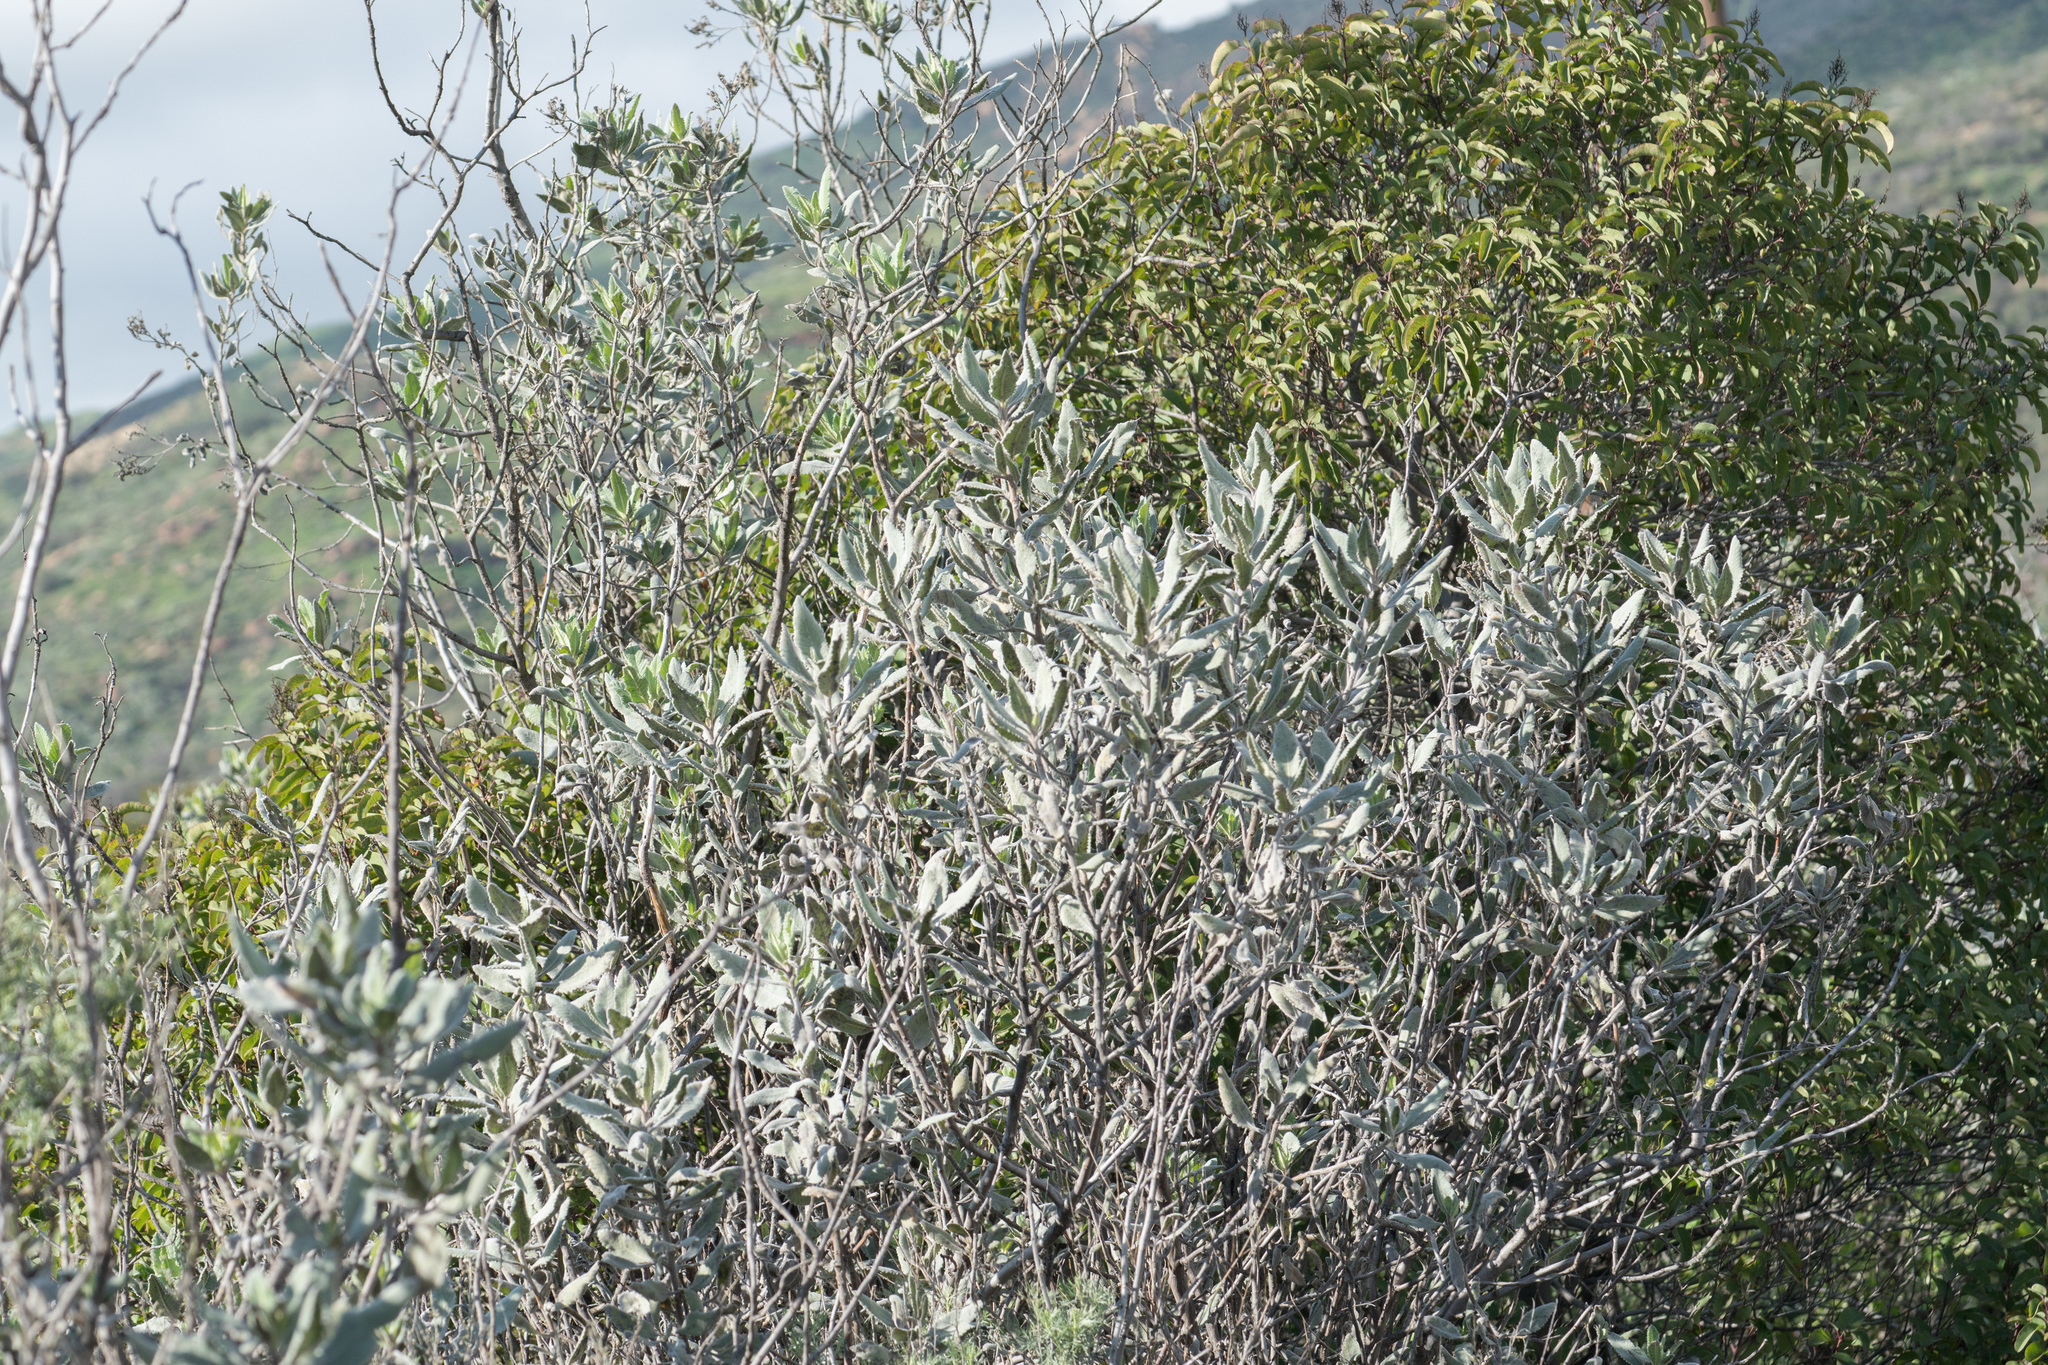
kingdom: Plantae
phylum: Tracheophyta
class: Magnoliopsida
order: Boraginales
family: Namaceae
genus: Eriodictyon
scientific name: Eriodictyon crassifolium
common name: Thick-leaf yerba-santa
